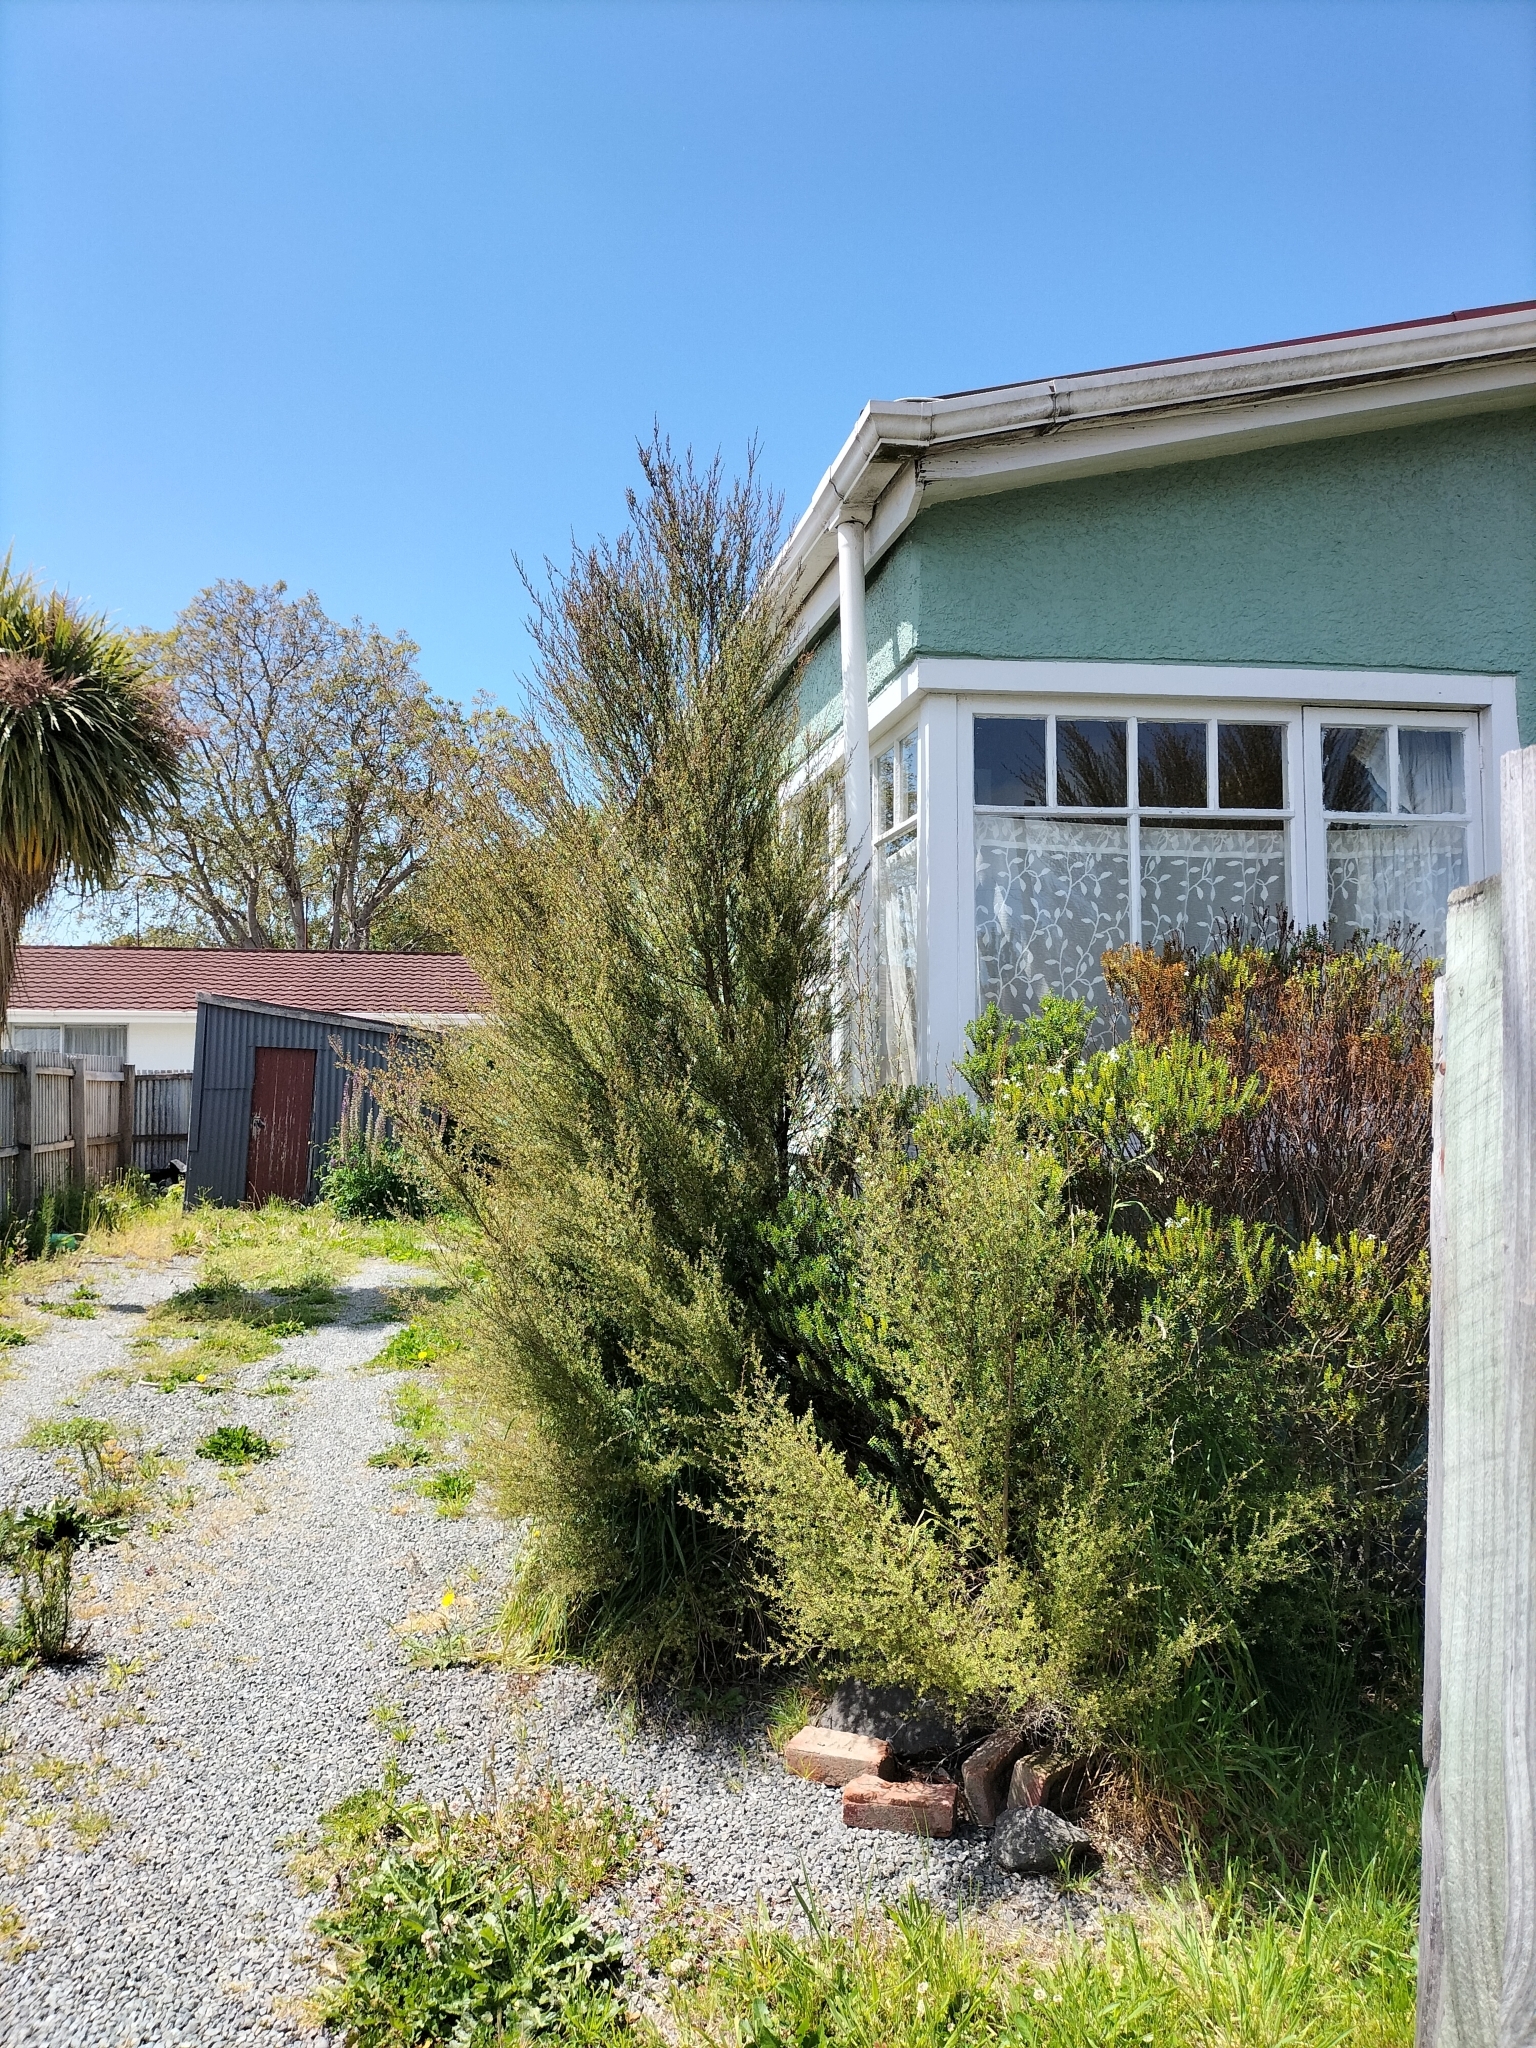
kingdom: Plantae
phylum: Tracheophyta
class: Magnoliopsida
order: Myrtales
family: Myrtaceae
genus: Kunzea
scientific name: Kunzea robusta
